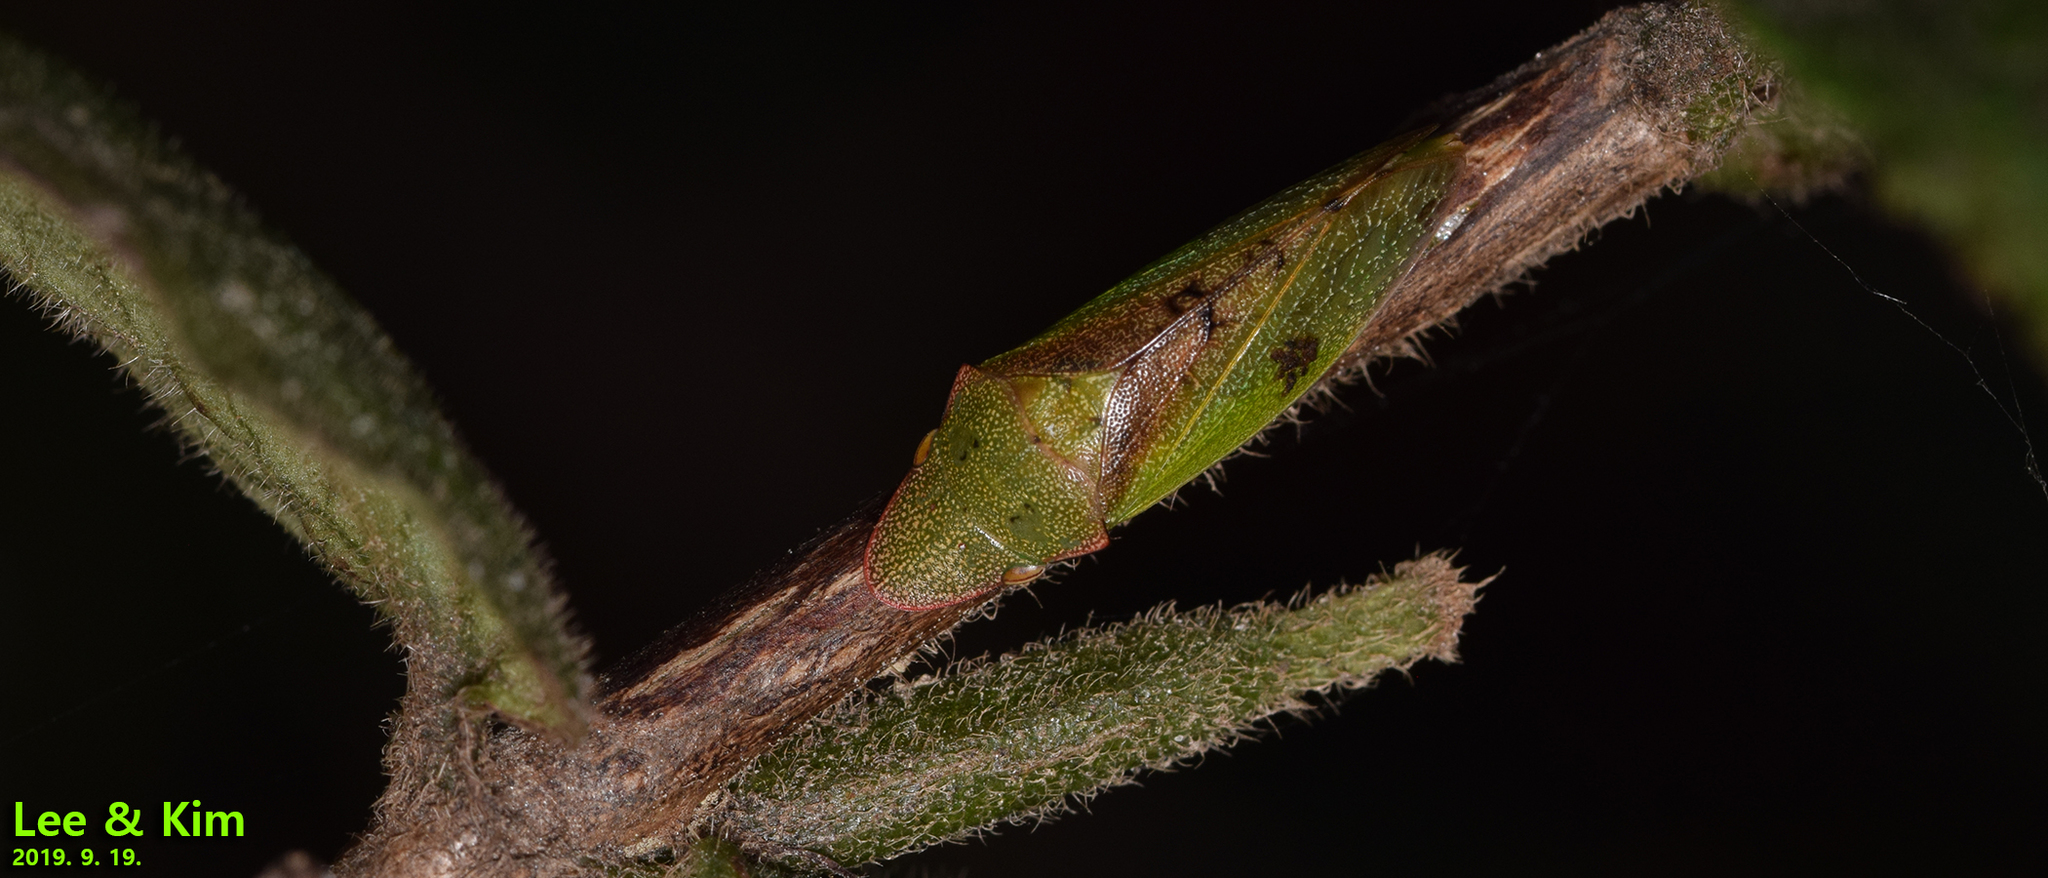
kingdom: Animalia
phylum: Arthropoda
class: Insecta
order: Hemiptera
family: Cicadellidae
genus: Neotituria
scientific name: Neotituria kongosana
